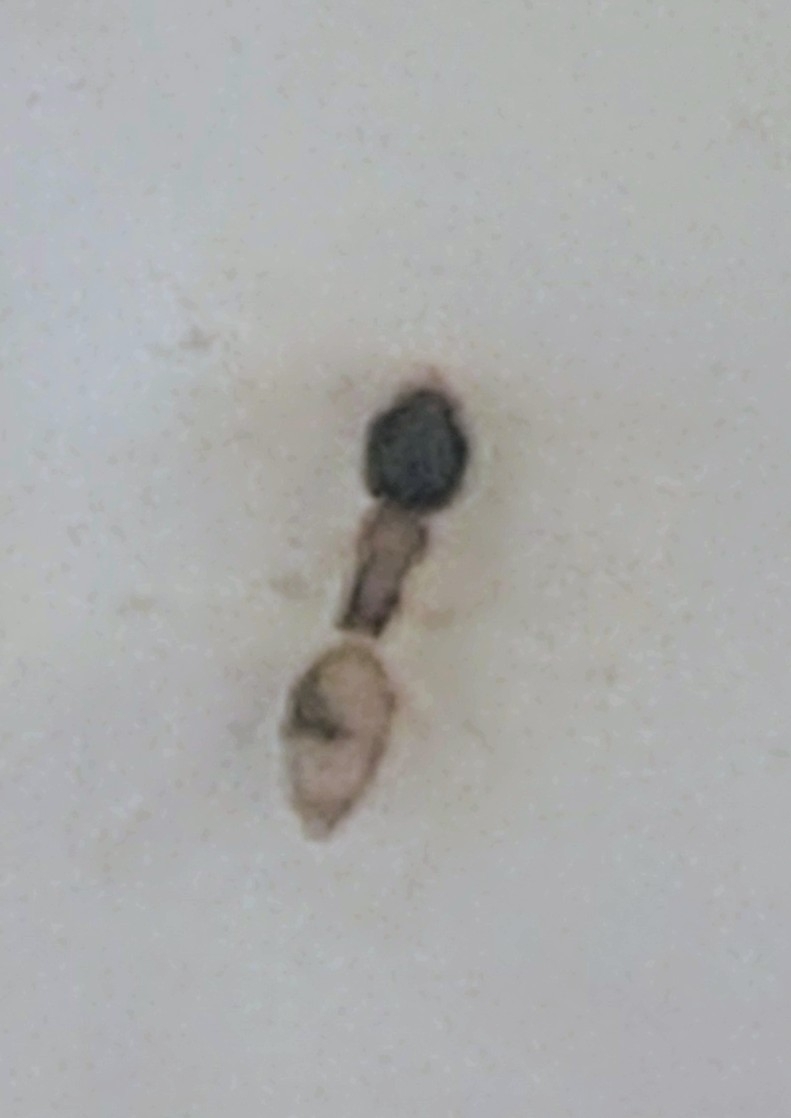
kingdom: Animalia
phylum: Arthropoda
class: Insecta
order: Hymenoptera
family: Formicidae
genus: Tapinoma
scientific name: Tapinoma melanocephalum
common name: Ghost ant
